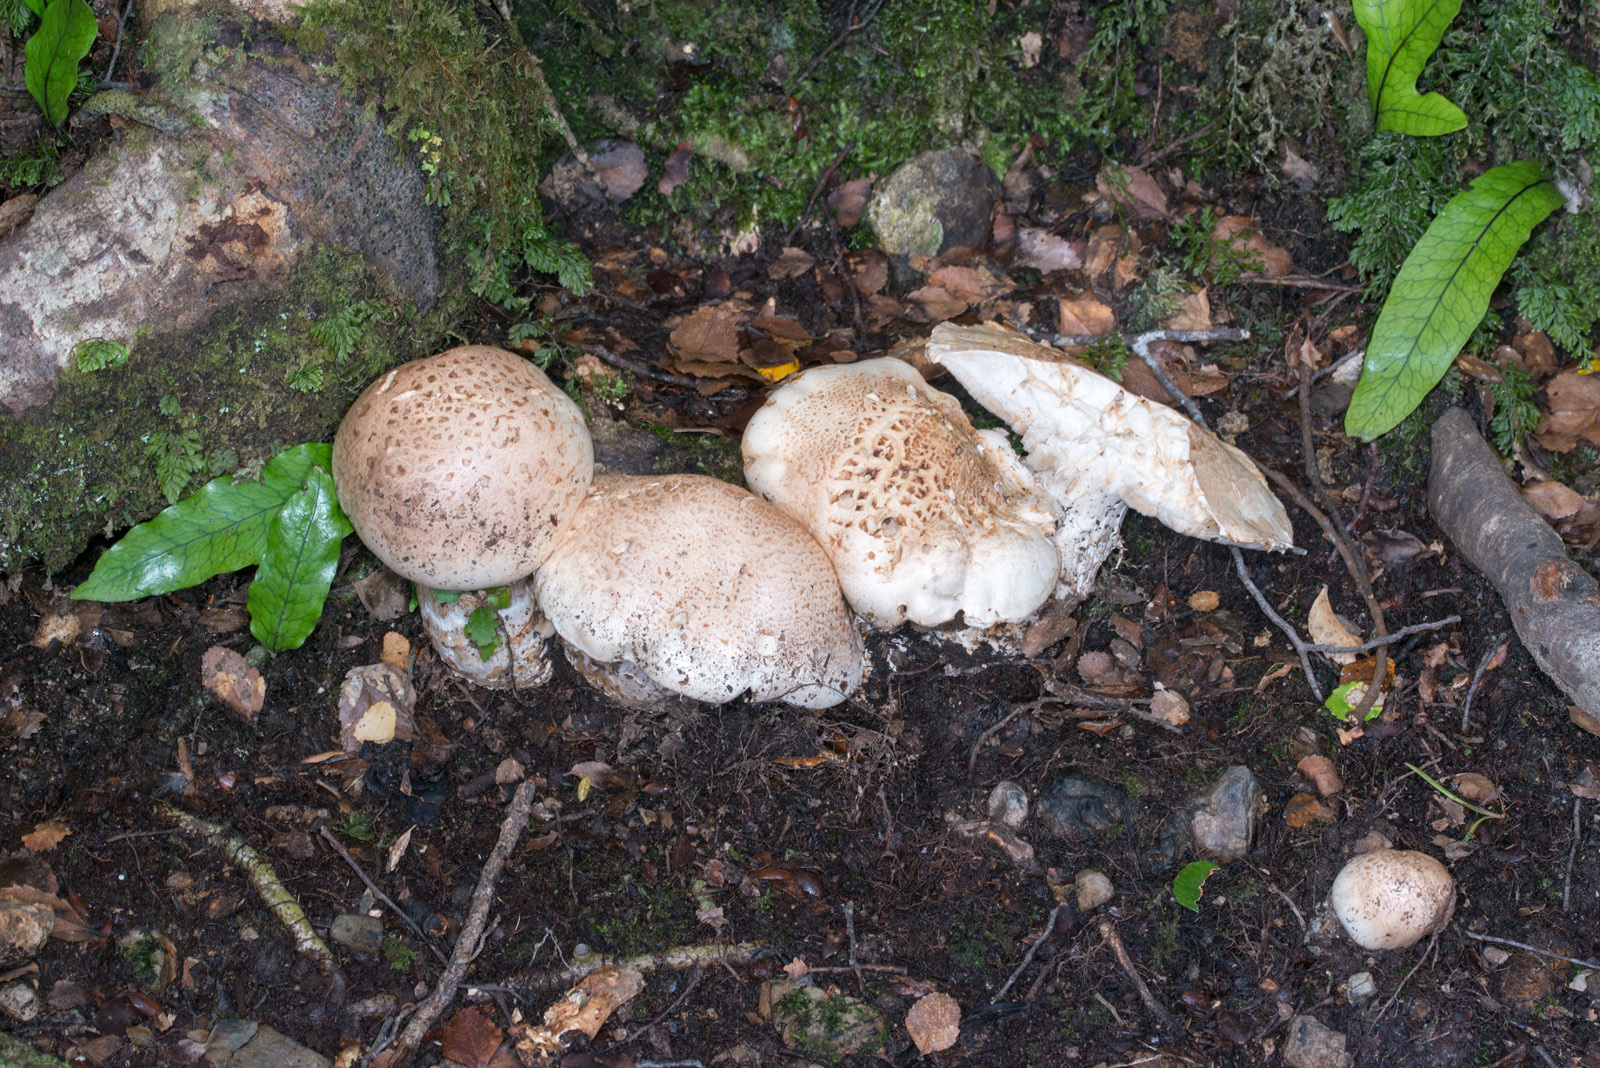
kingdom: Fungi
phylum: Basidiomycota
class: Agaricomycetes
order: Agaricales
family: Hymenogastraceae
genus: Hebeloma
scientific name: Hebeloma victoriense
